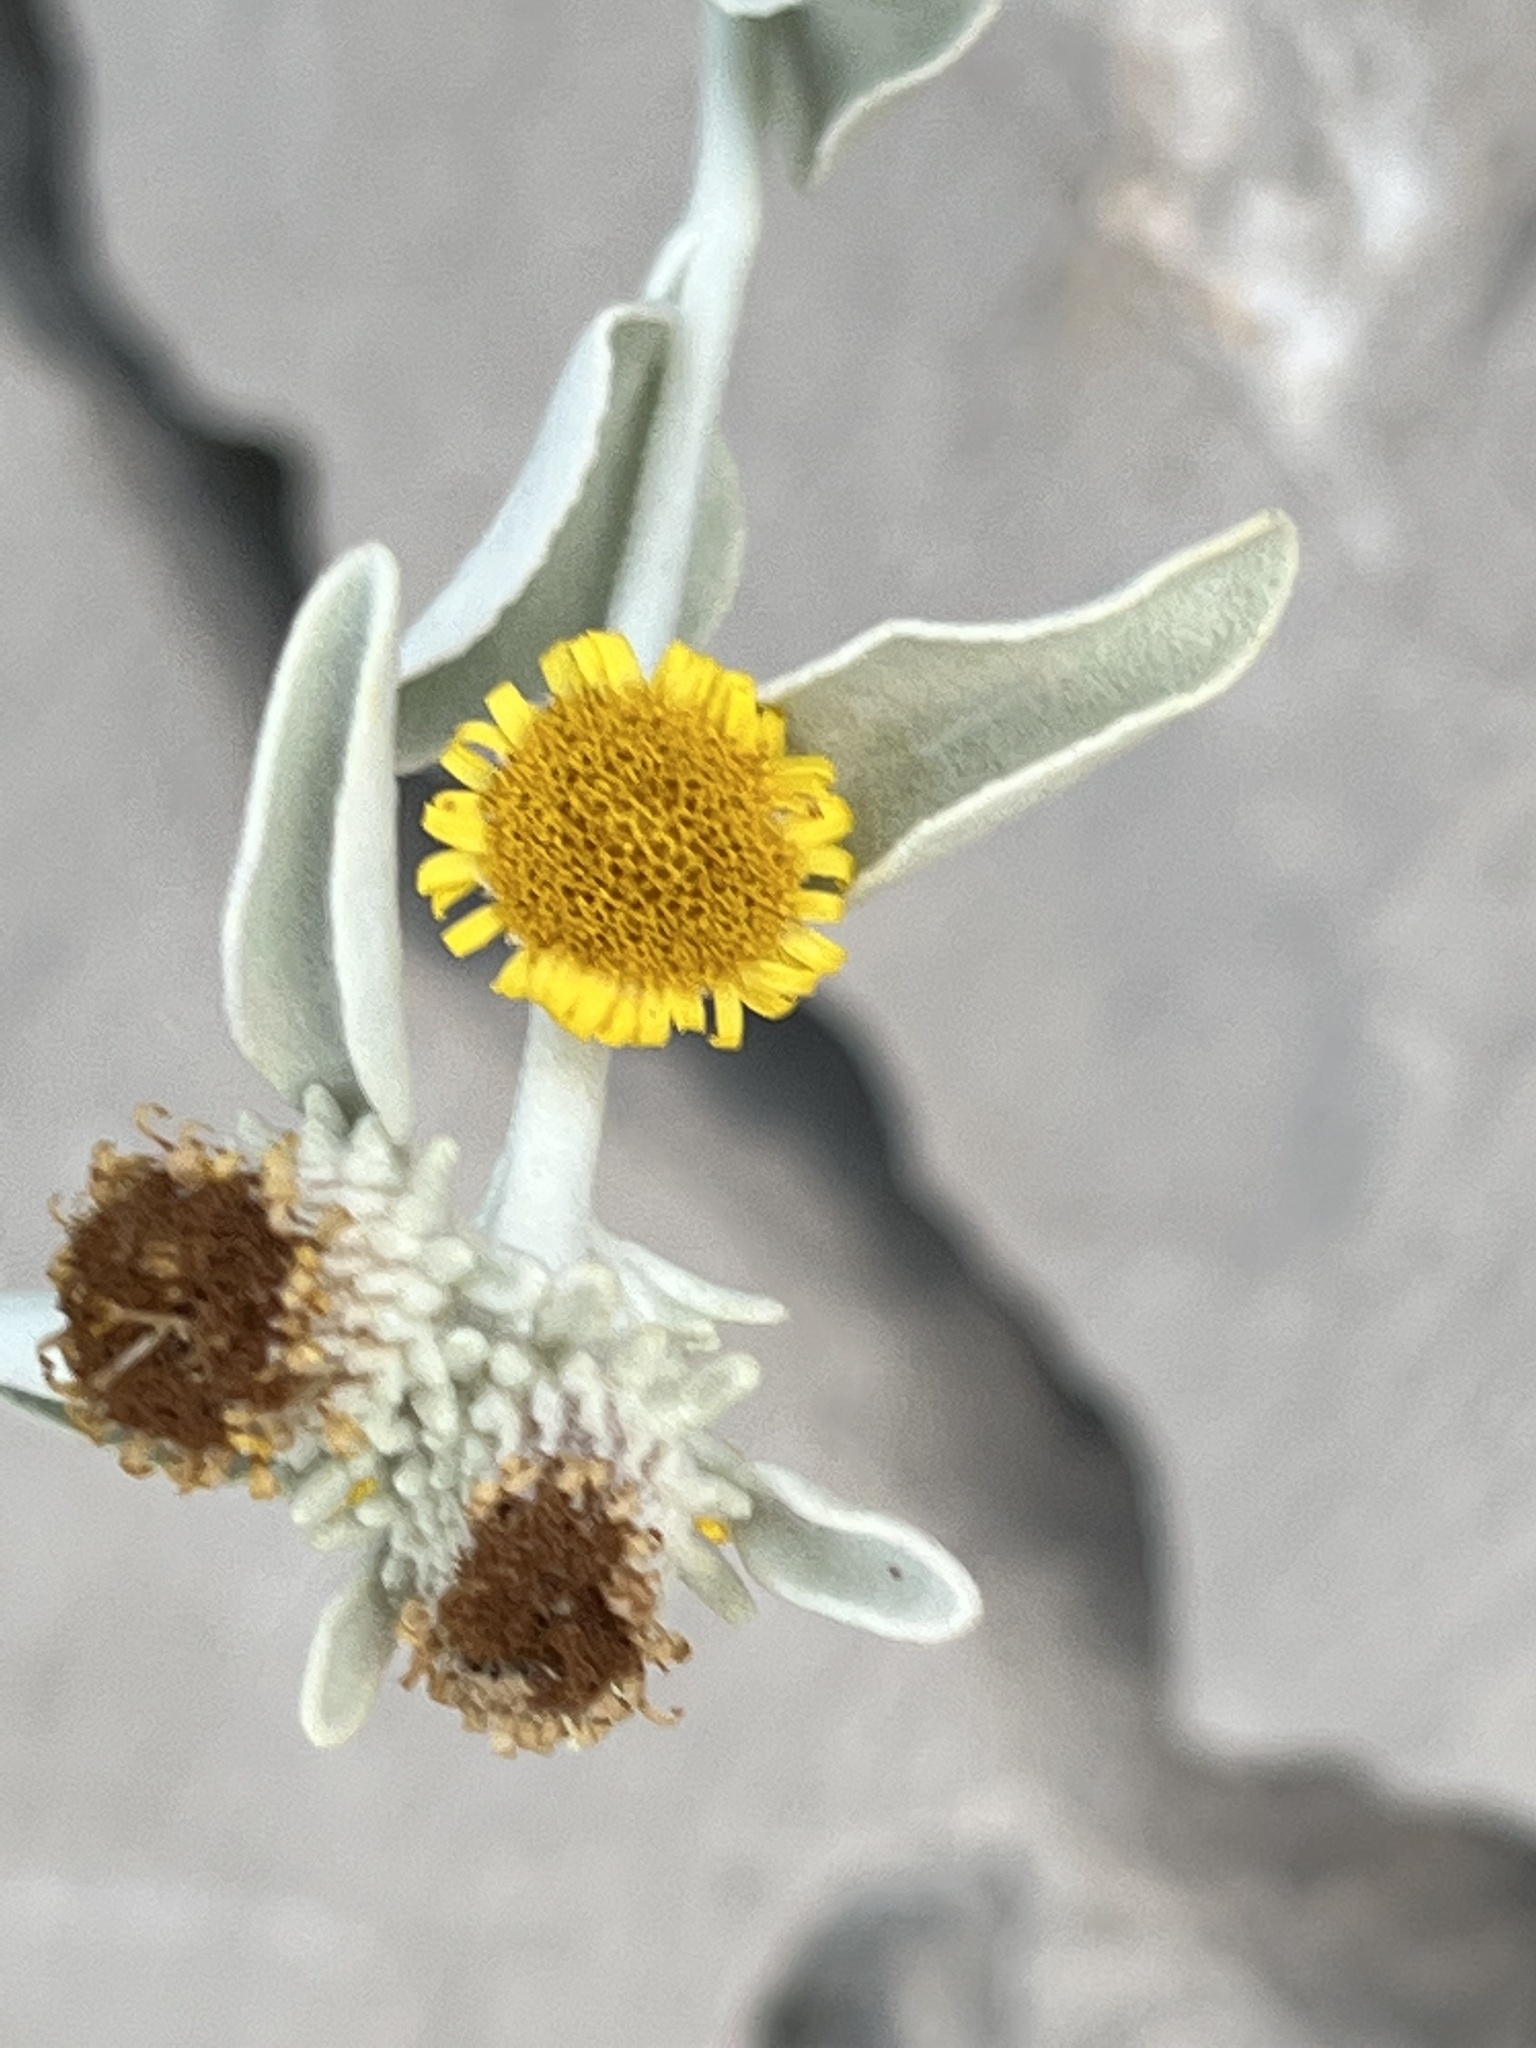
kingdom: Plantae
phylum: Tracheophyta
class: Magnoliopsida
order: Asterales
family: Asteraceae
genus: Pentanema
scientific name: Pentanema verbascifolium
